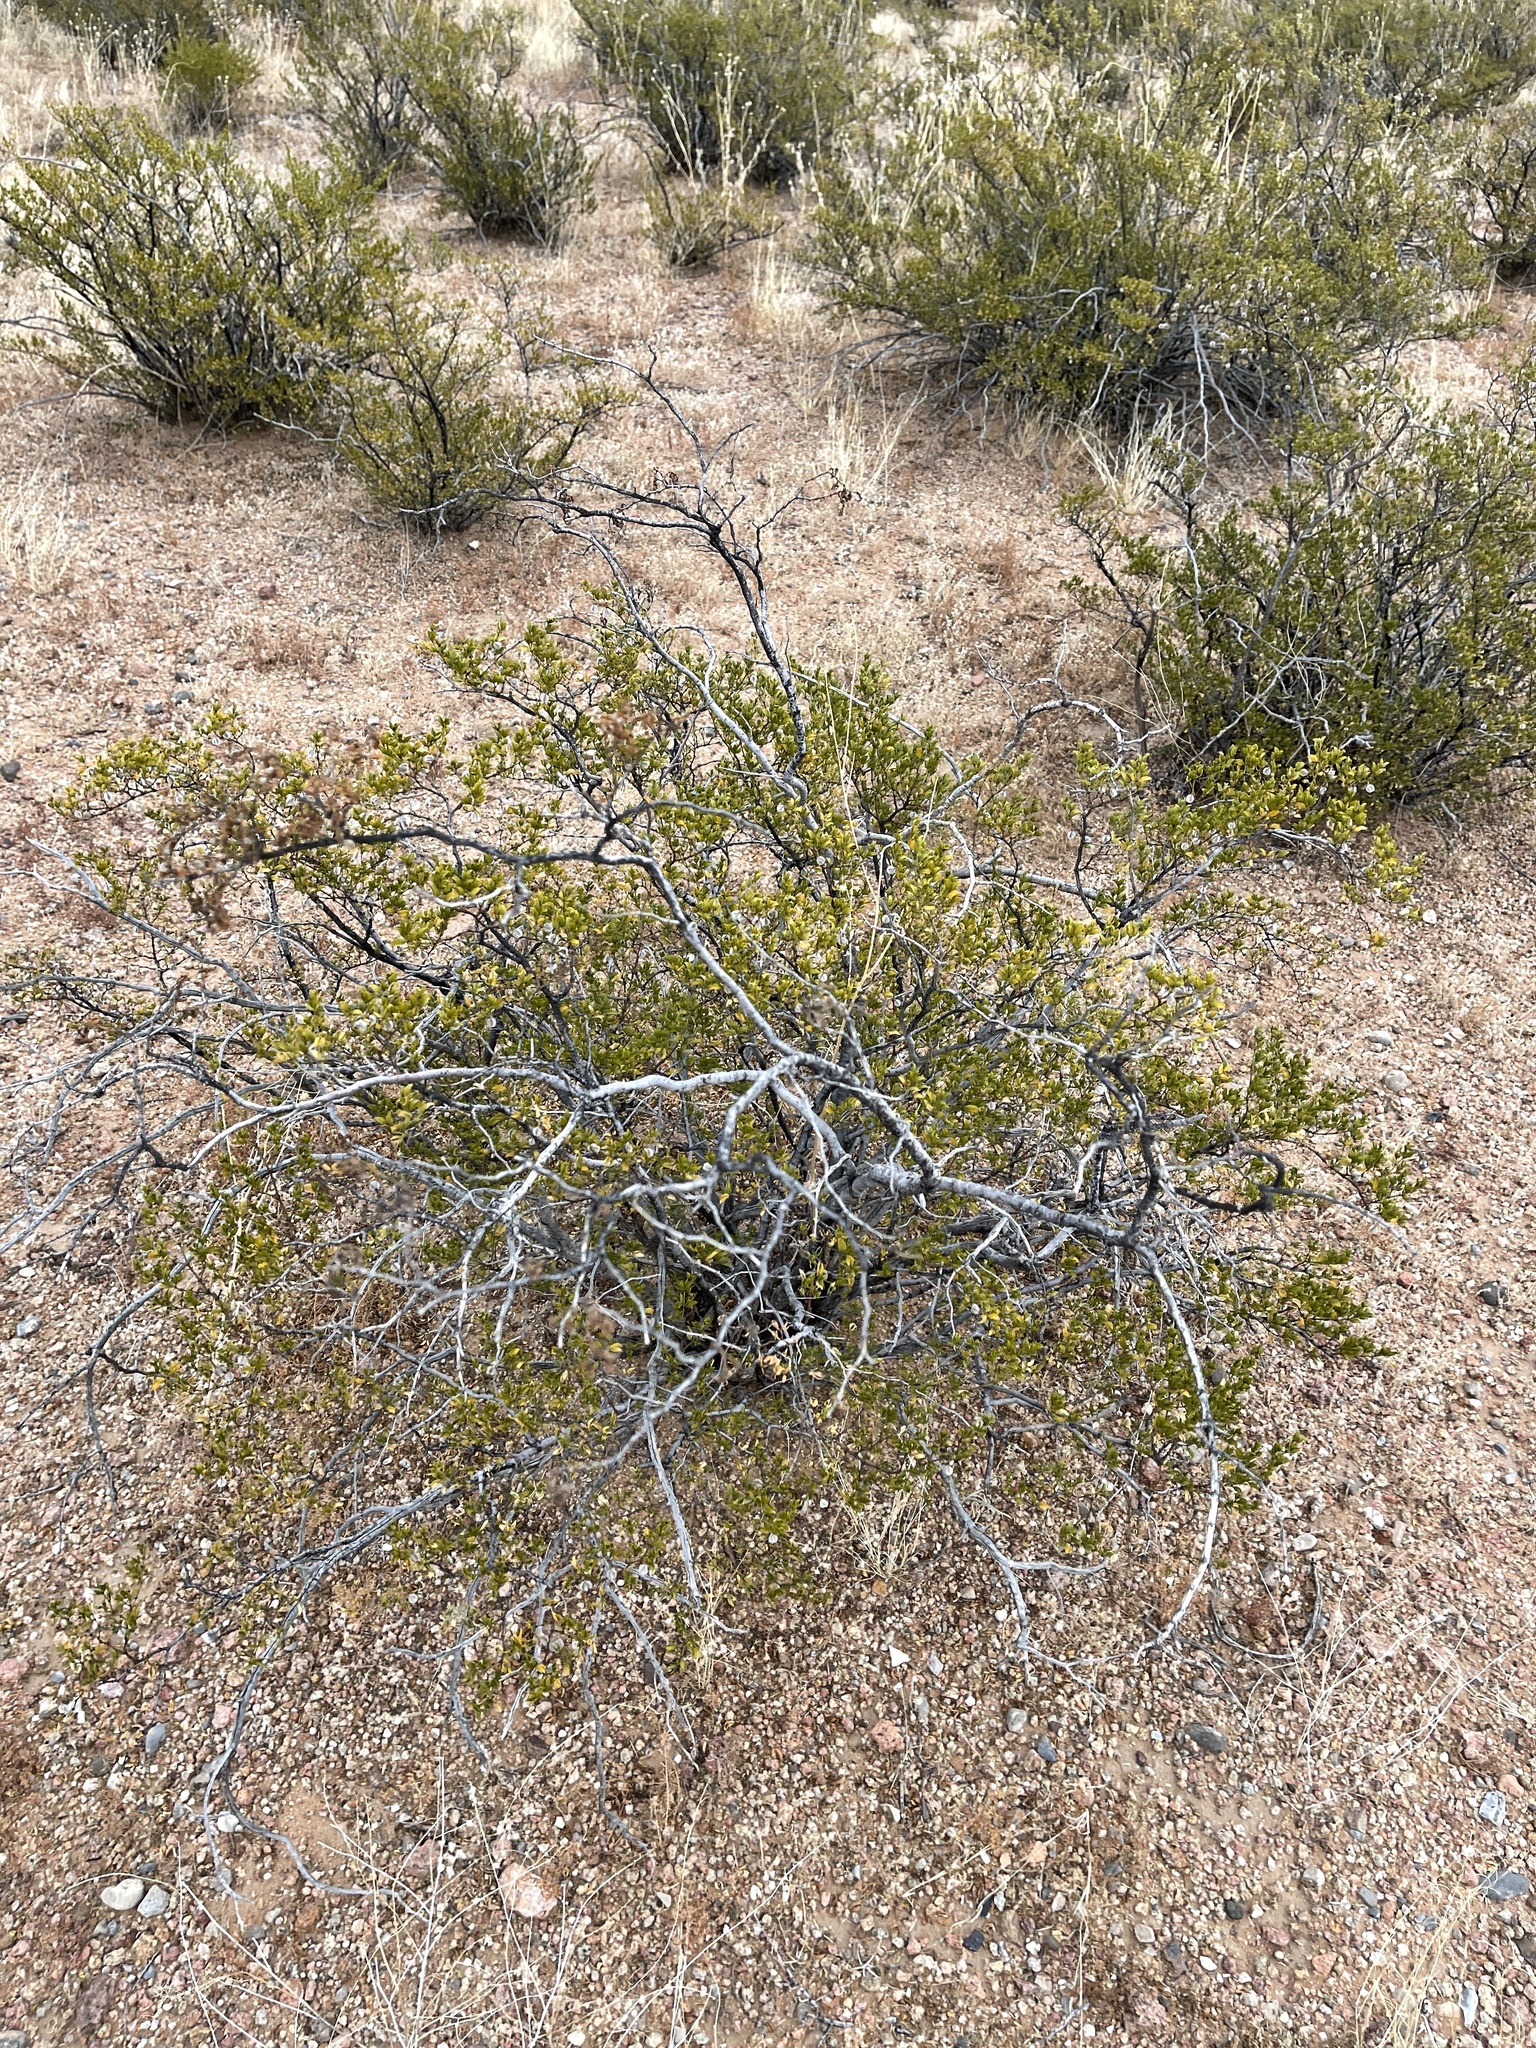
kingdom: Plantae
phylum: Tracheophyta
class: Magnoliopsida
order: Zygophyllales
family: Zygophyllaceae
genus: Larrea
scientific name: Larrea tridentata
